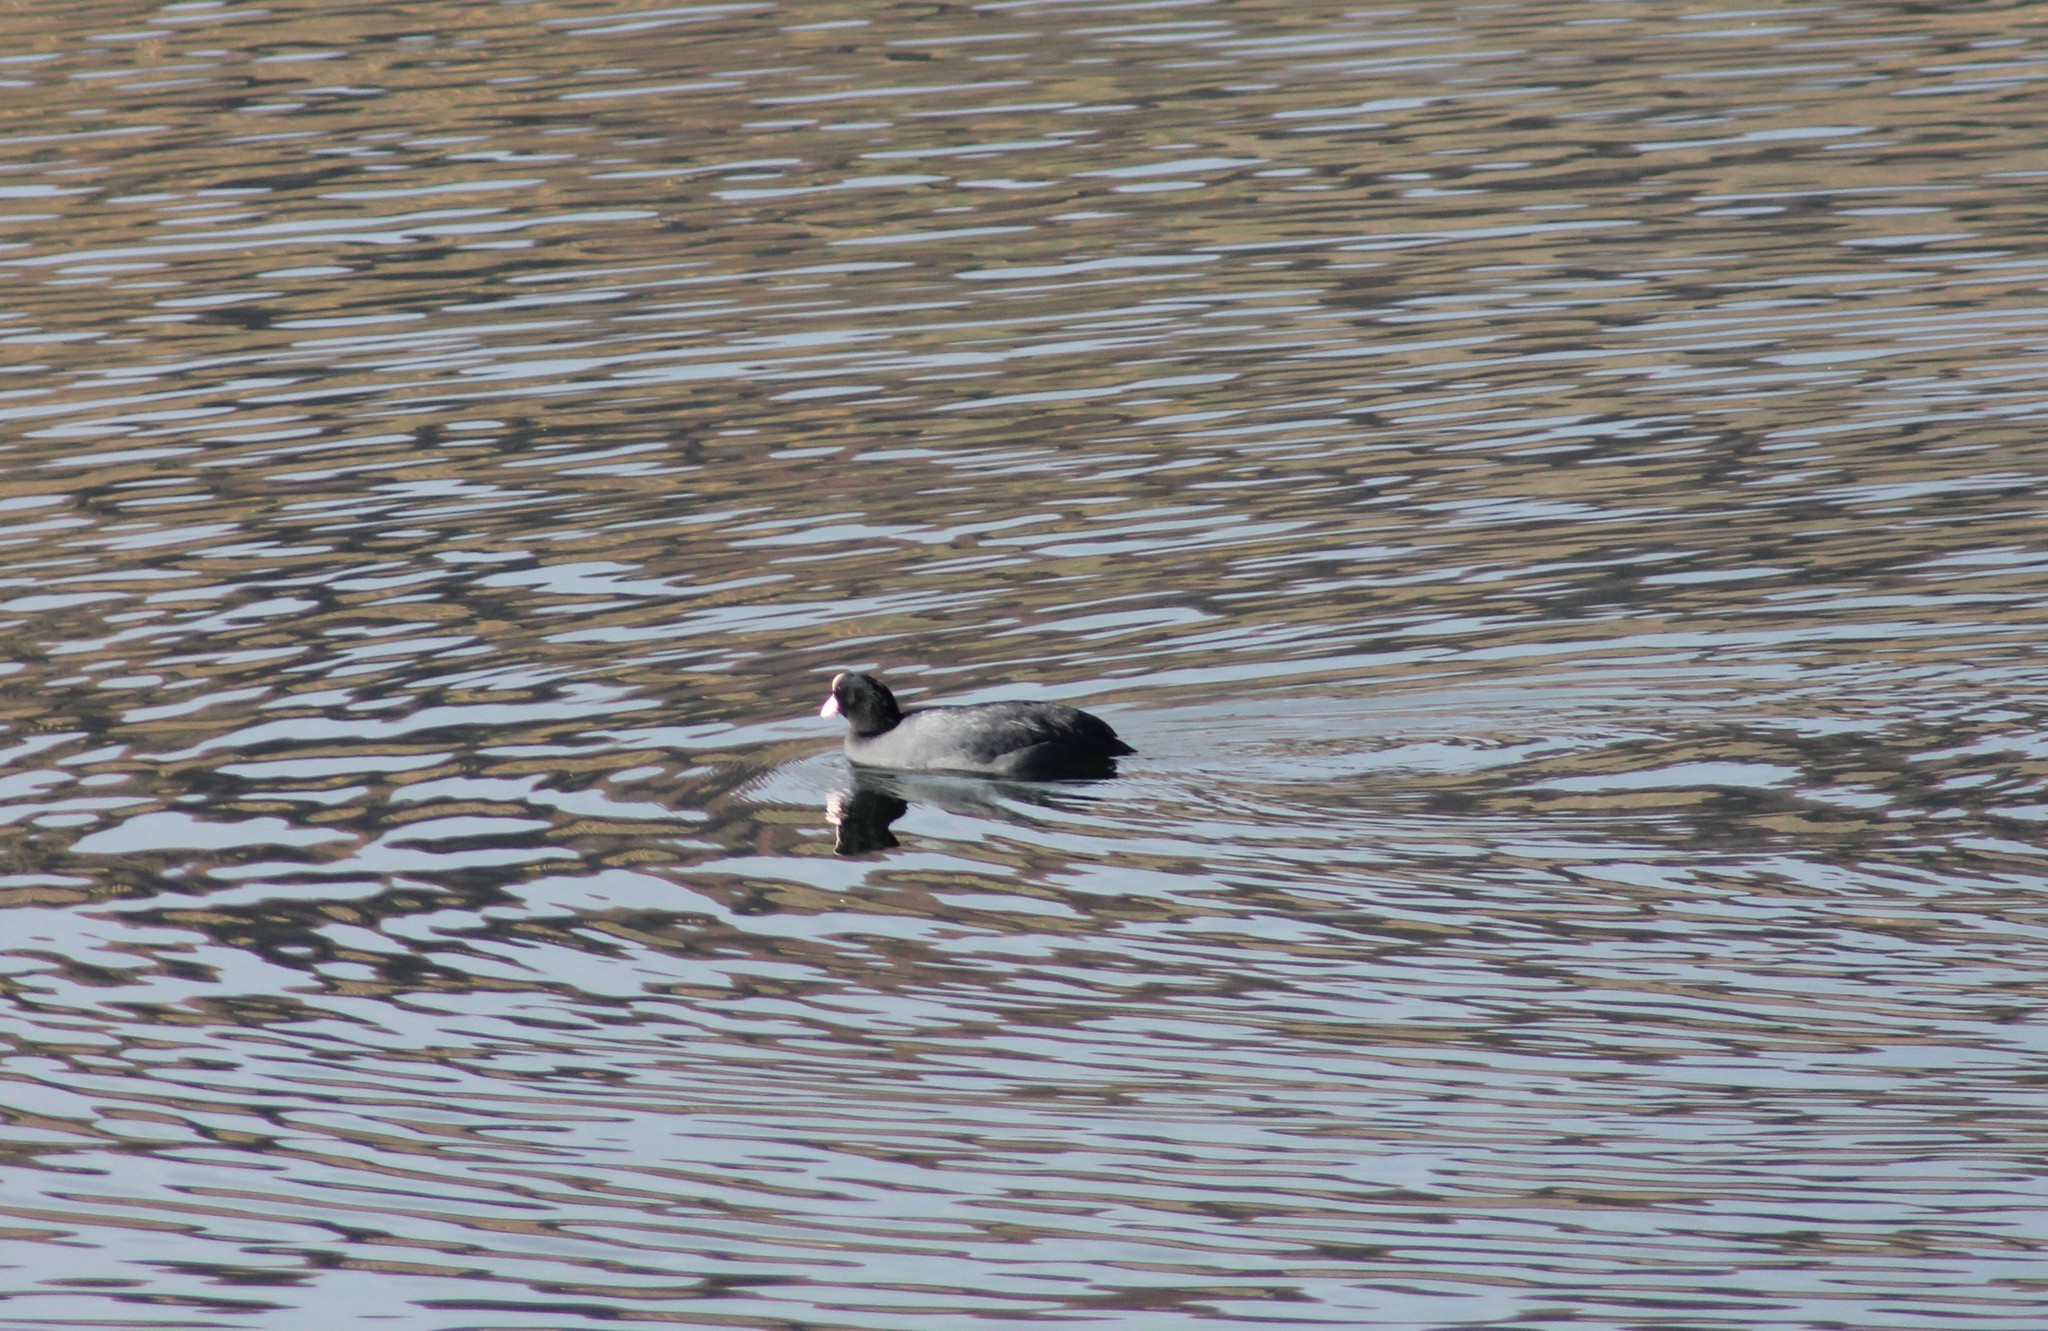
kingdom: Animalia
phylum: Chordata
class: Aves
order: Gruiformes
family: Rallidae
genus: Fulica
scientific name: Fulica atra
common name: Eurasian coot
